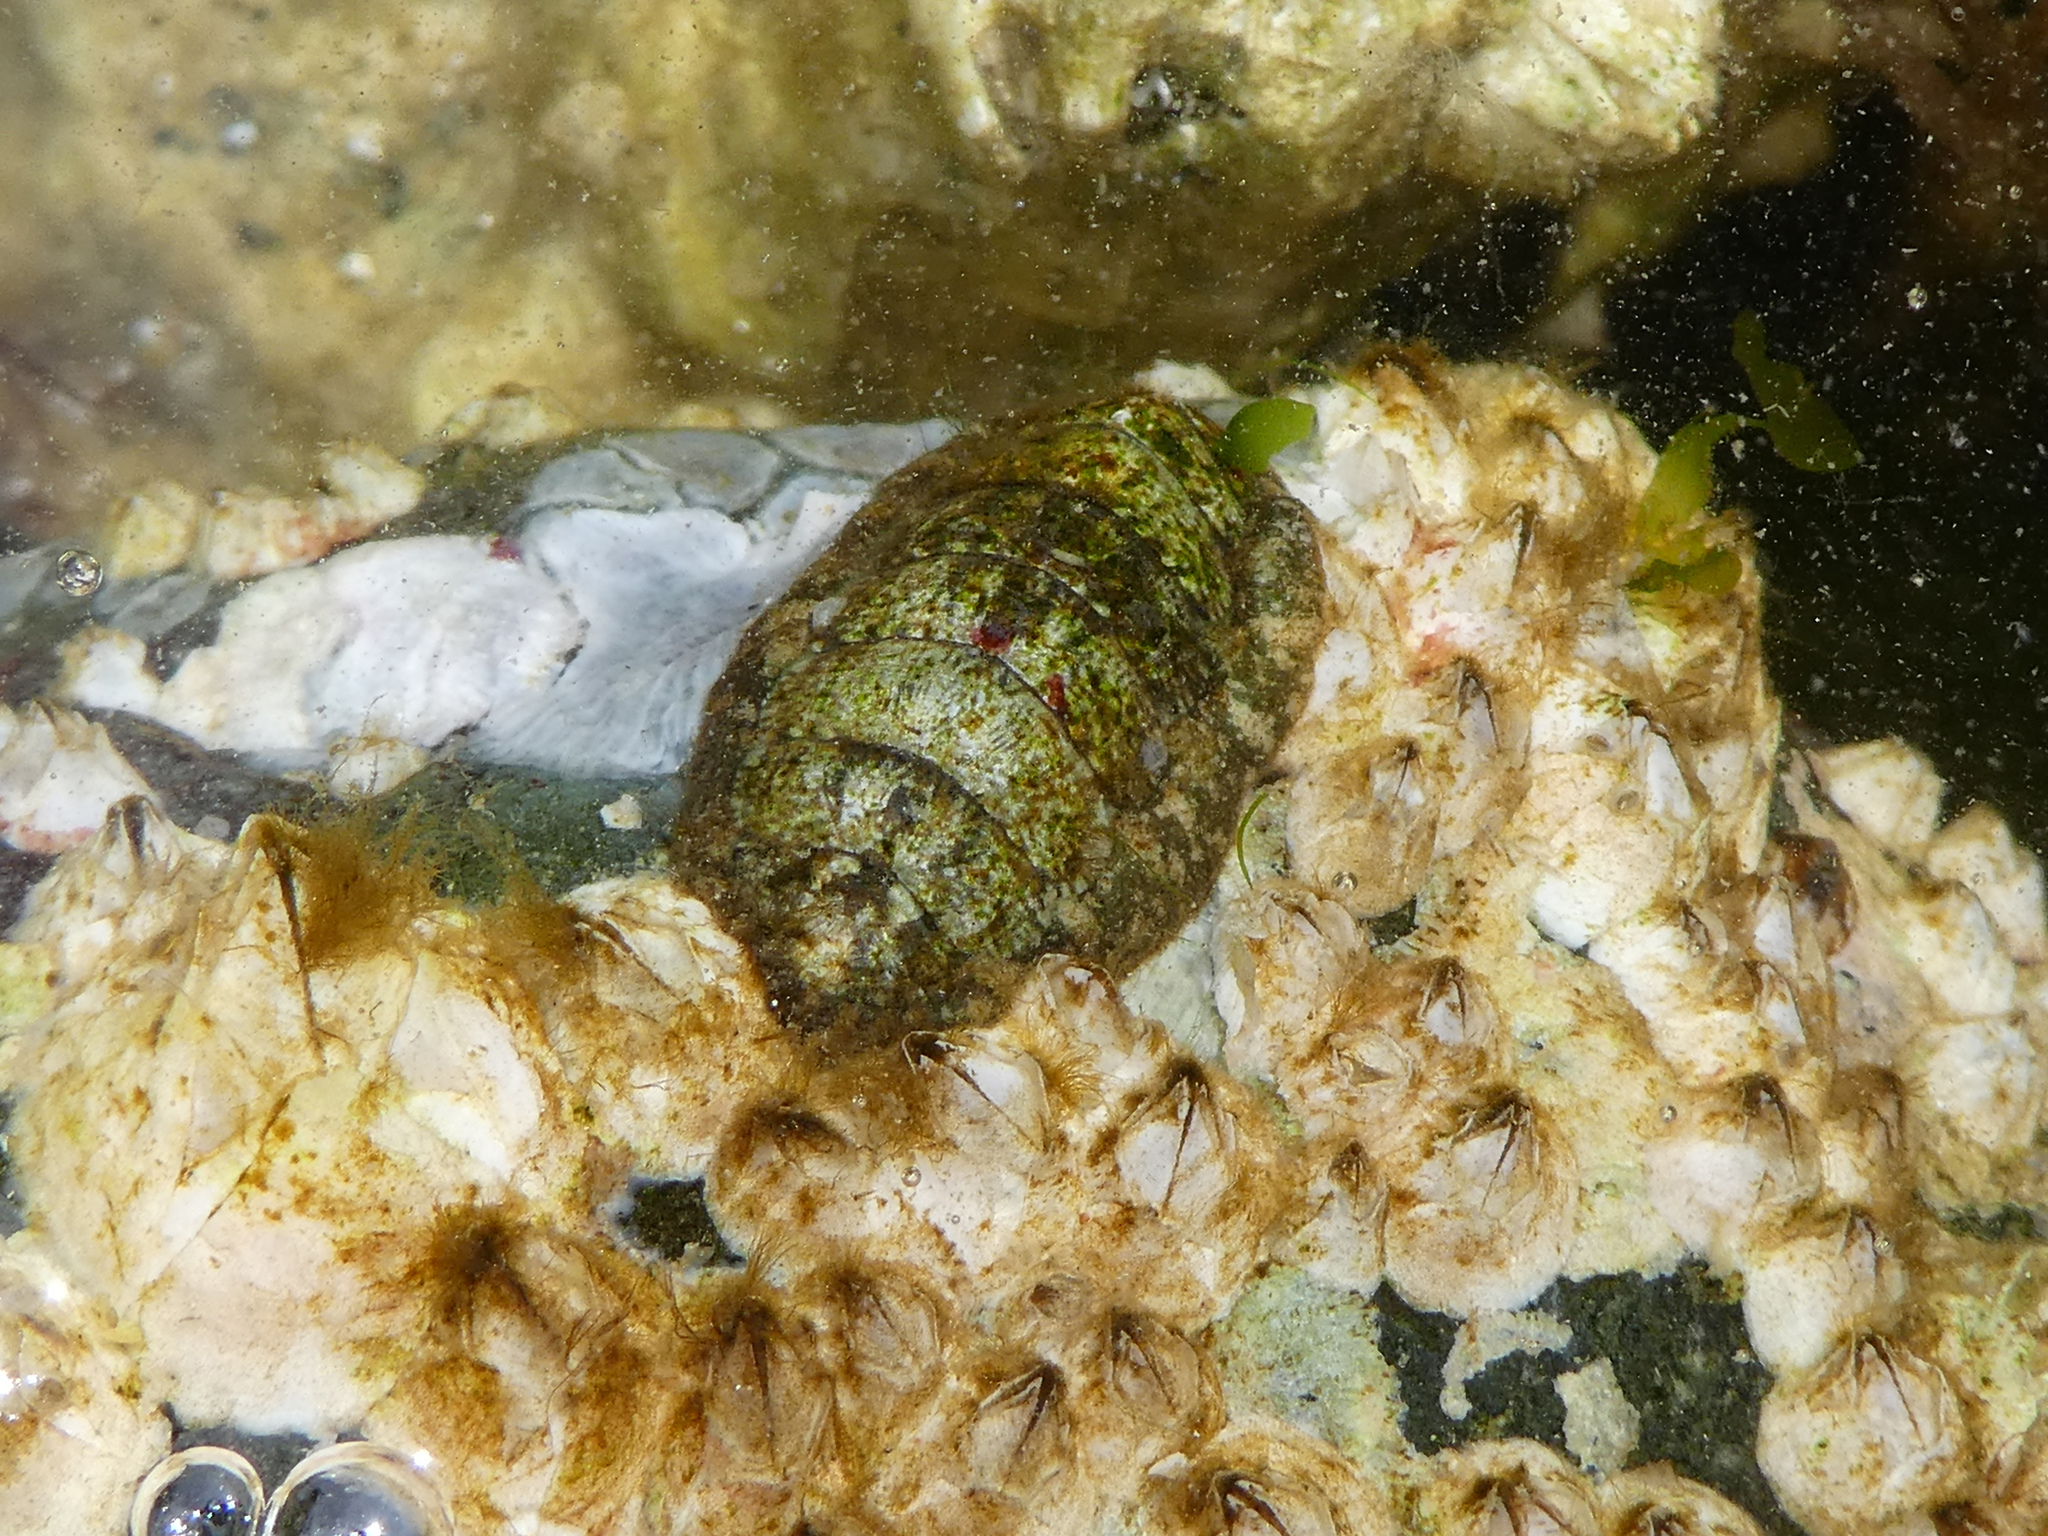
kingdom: Animalia
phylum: Mollusca
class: Polyplacophora
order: Chitonida
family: Tonicellidae
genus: Cyanoplax
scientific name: Cyanoplax dentiens
